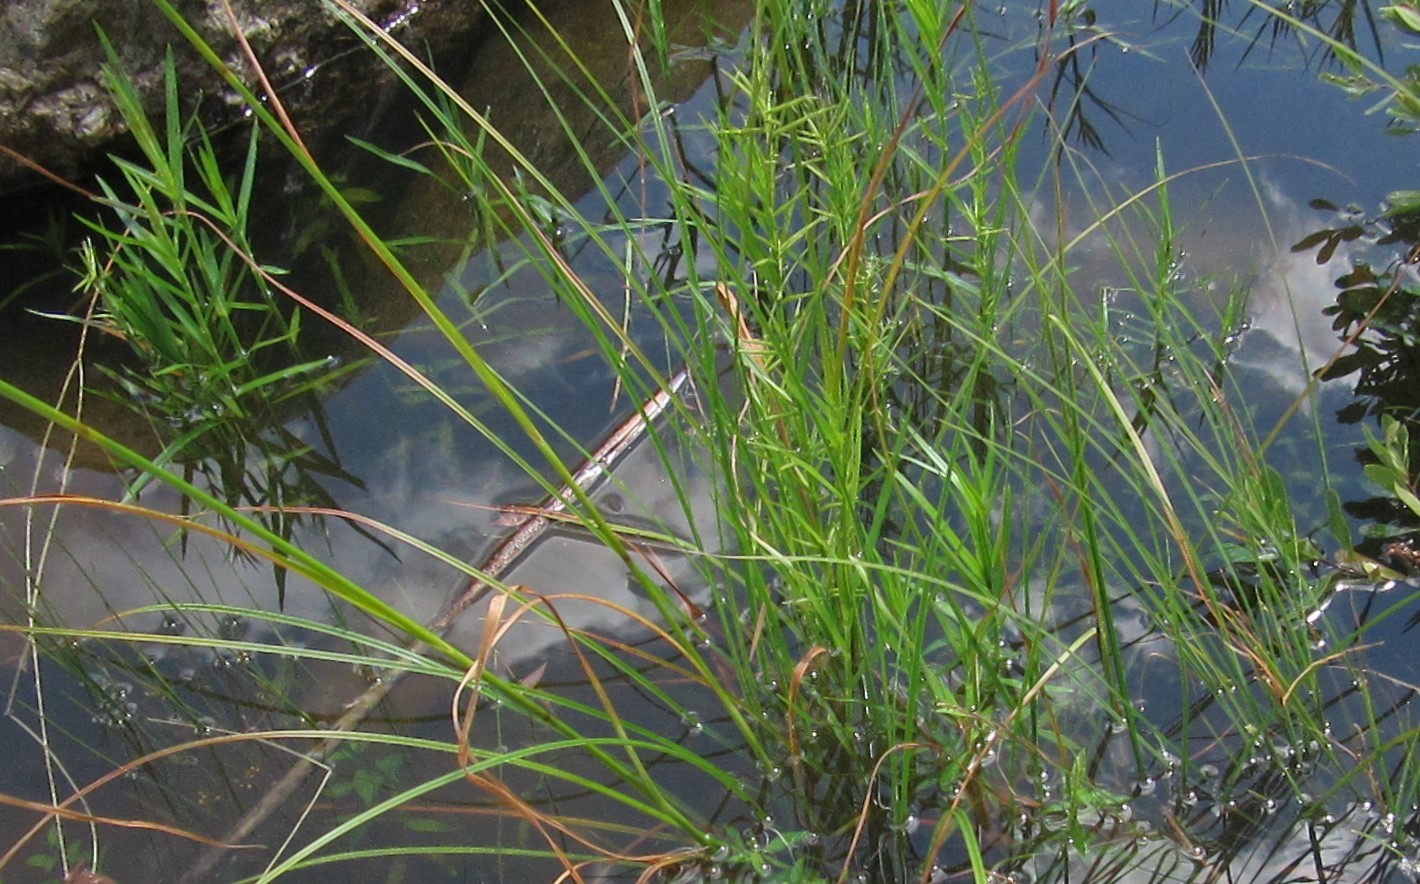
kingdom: Plantae
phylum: Tracheophyta
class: Liliopsida
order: Poales
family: Cyperaceae
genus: Dulichium
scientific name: Dulichium arundinaceum
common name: Three-way sedge
